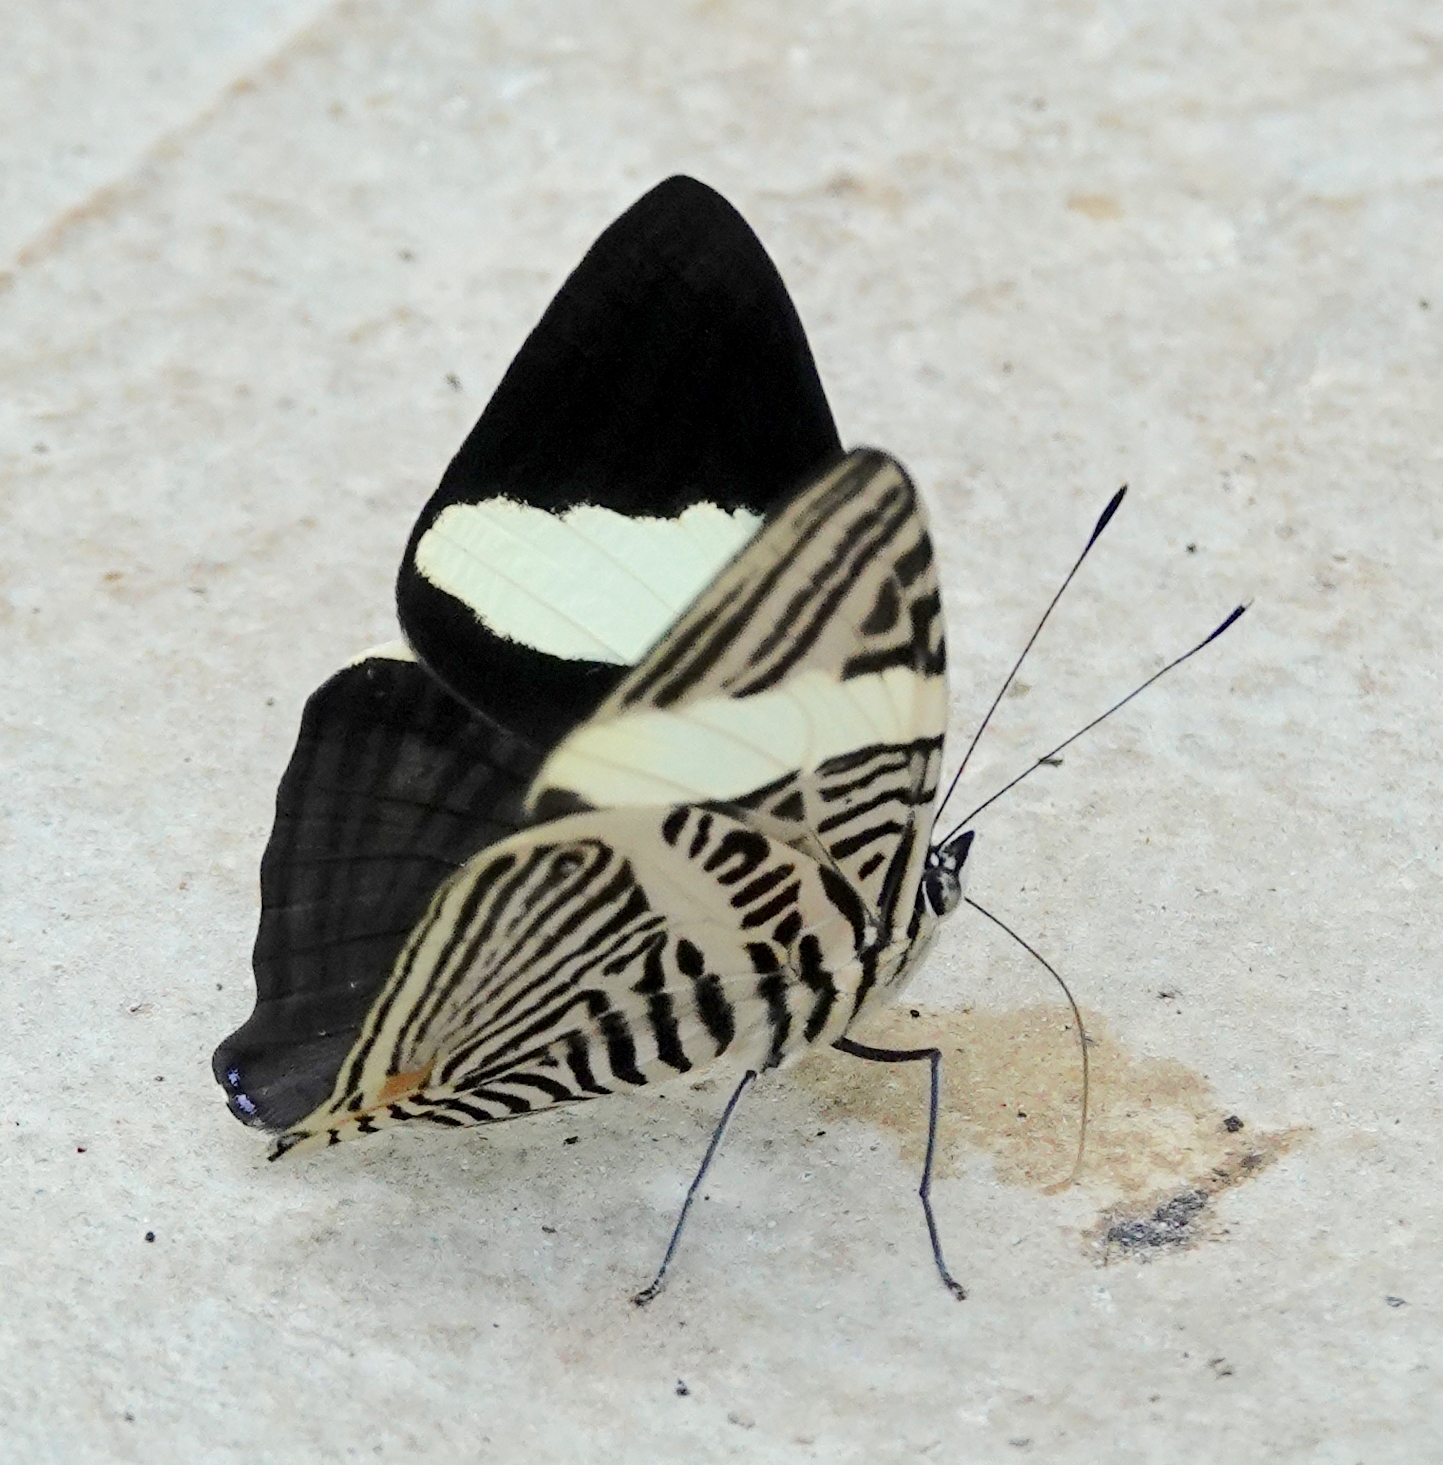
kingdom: Animalia
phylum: Arthropoda
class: Insecta
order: Lepidoptera
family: Nymphalidae
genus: Colobura
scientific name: Colobura annulata
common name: New beauty
